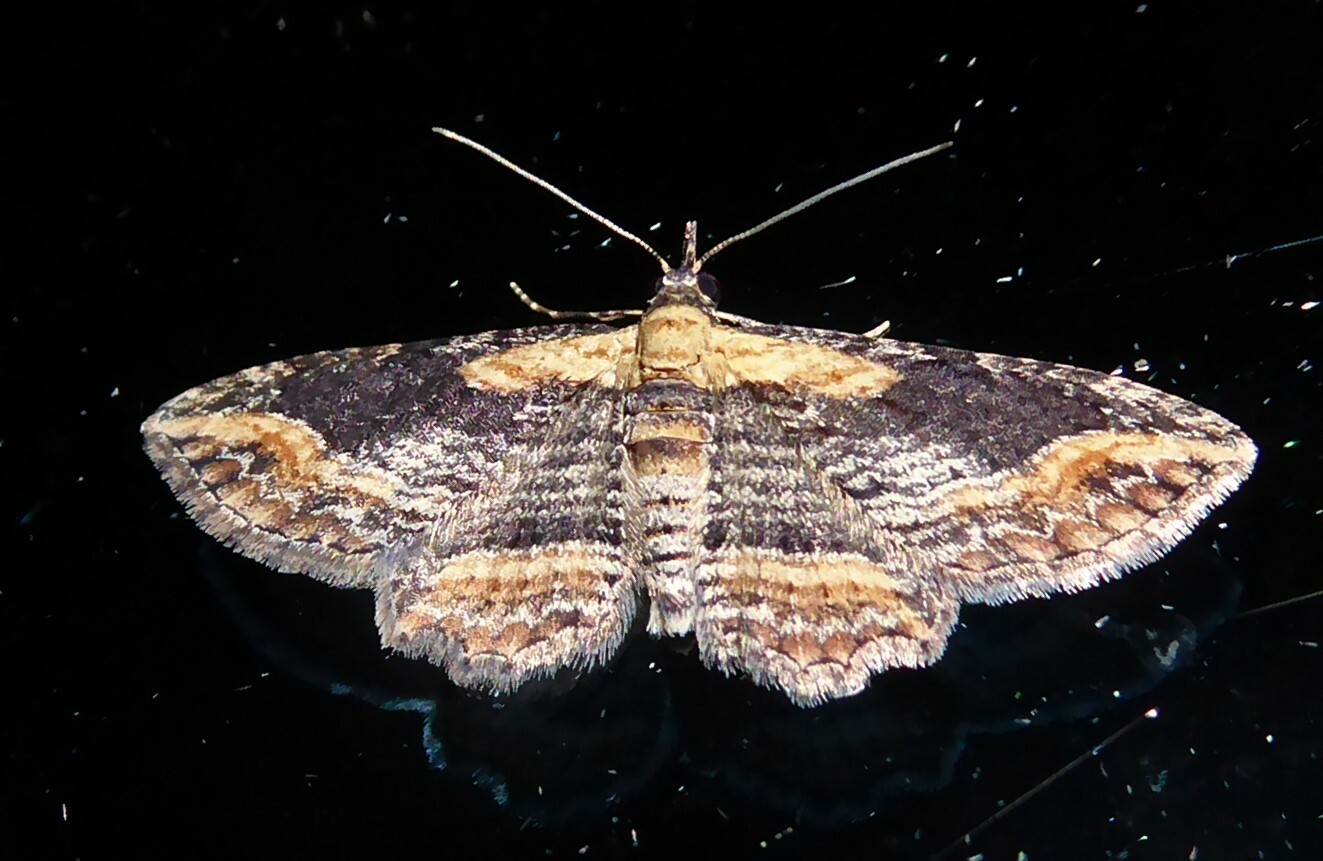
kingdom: Animalia
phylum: Arthropoda
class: Insecta
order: Lepidoptera
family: Geometridae
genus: Chloroclystis
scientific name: Chloroclystis filata
